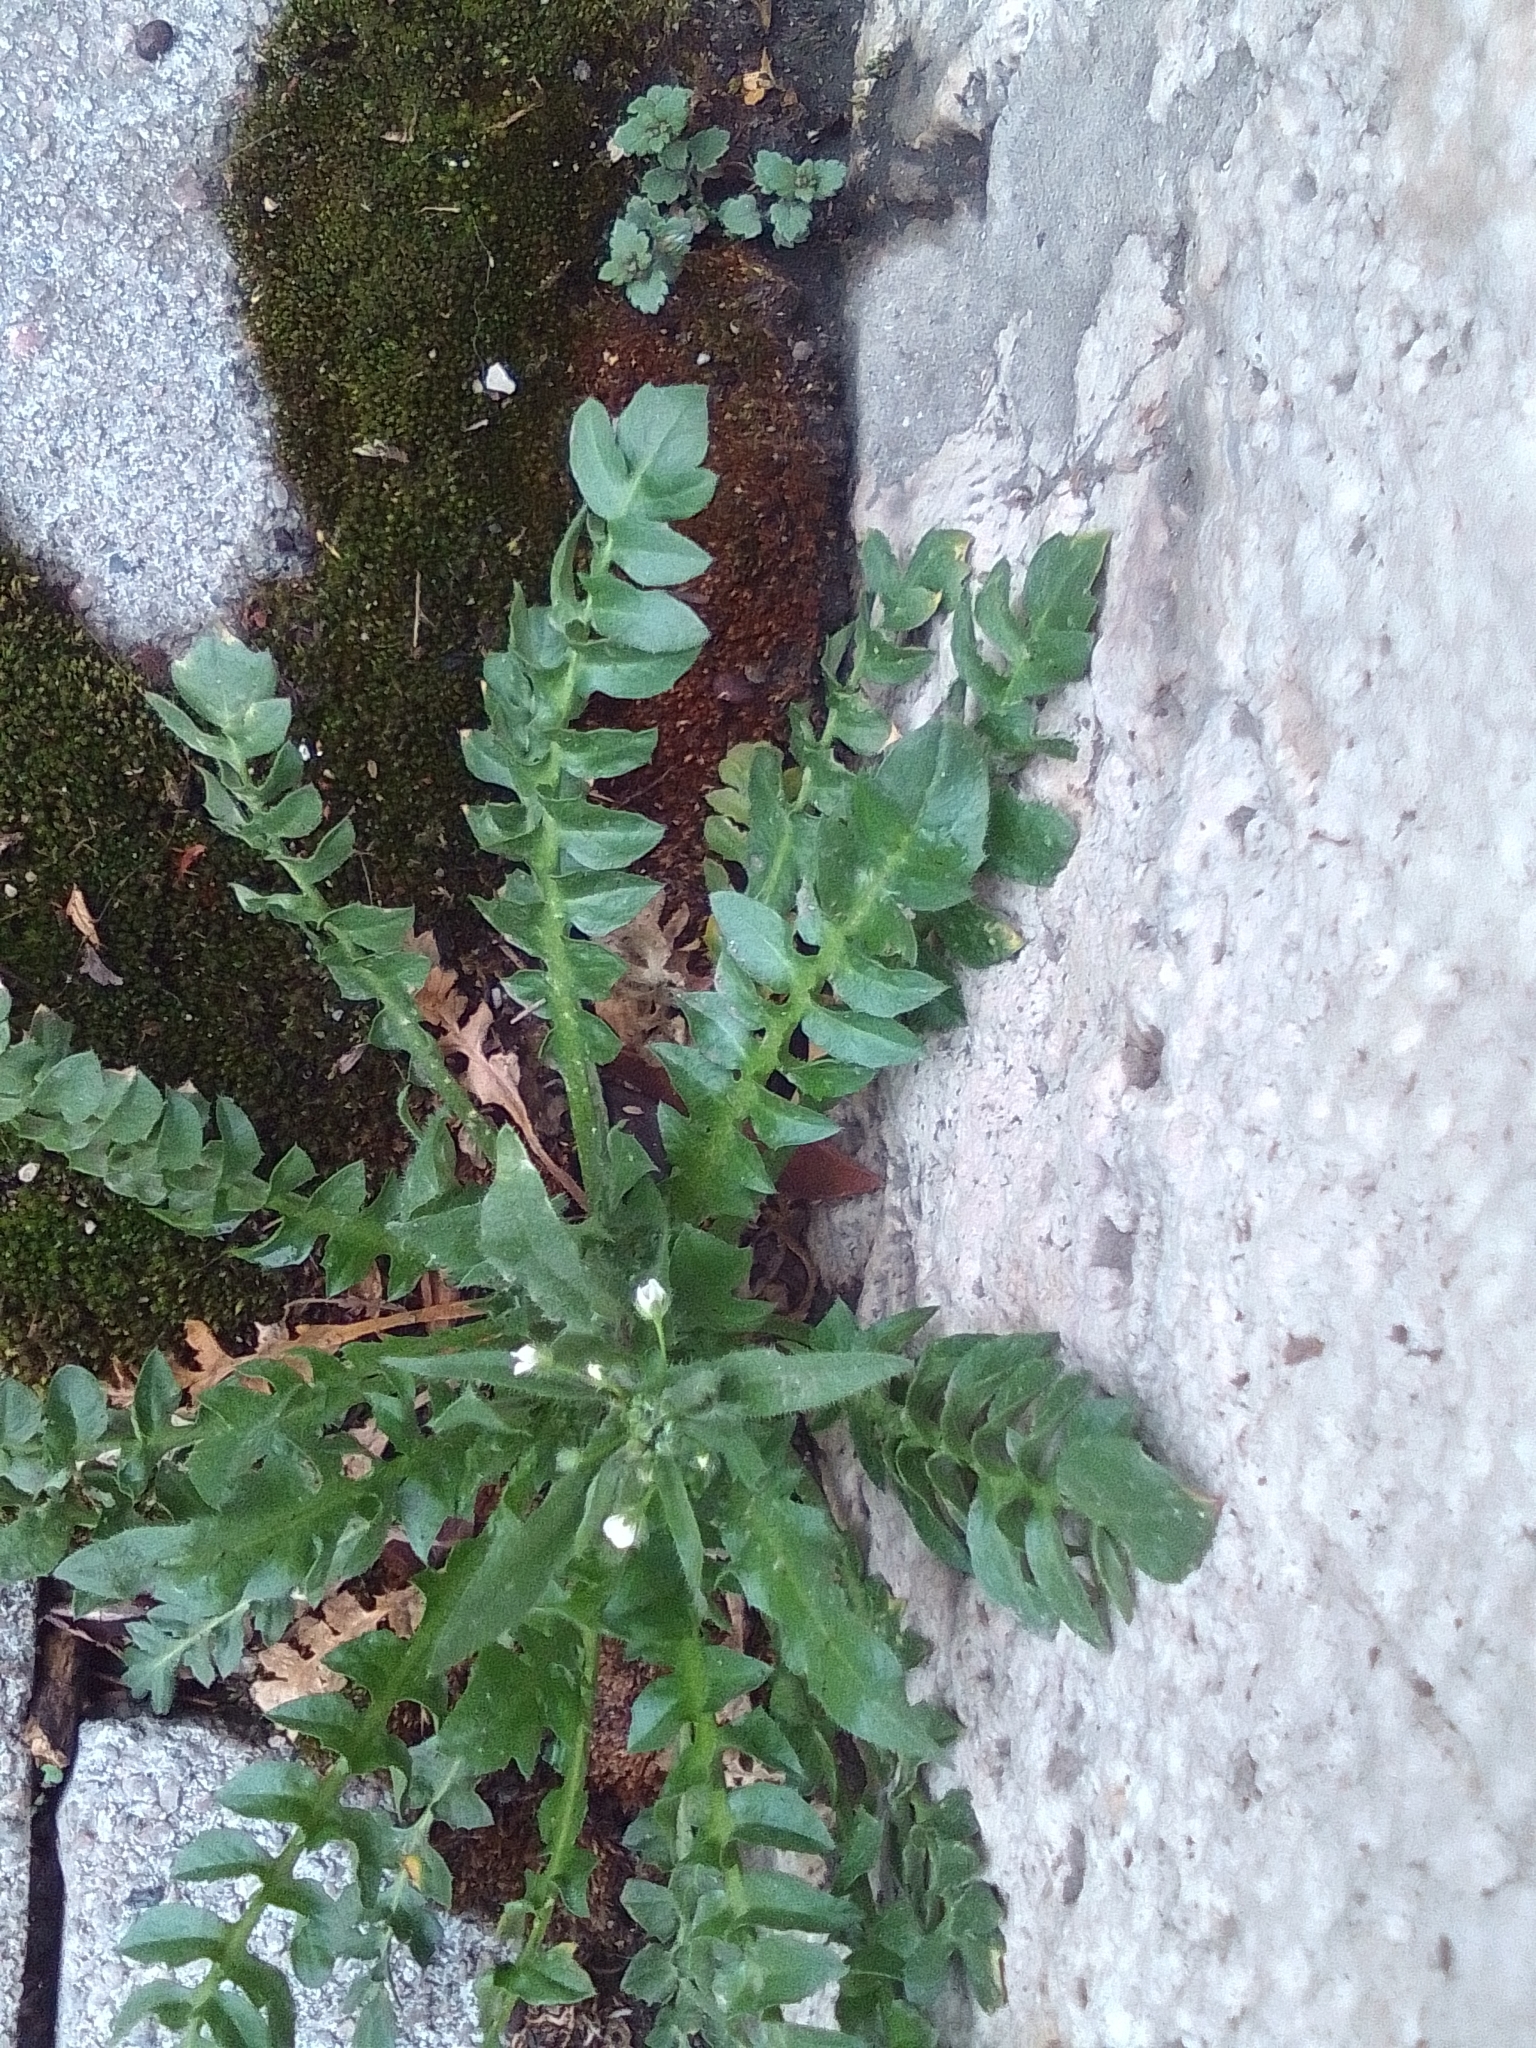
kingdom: Plantae
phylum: Tracheophyta
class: Magnoliopsida
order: Brassicales
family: Brassicaceae
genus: Capsella
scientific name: Capsella bursa-pastoris
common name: Shepherd's purse
